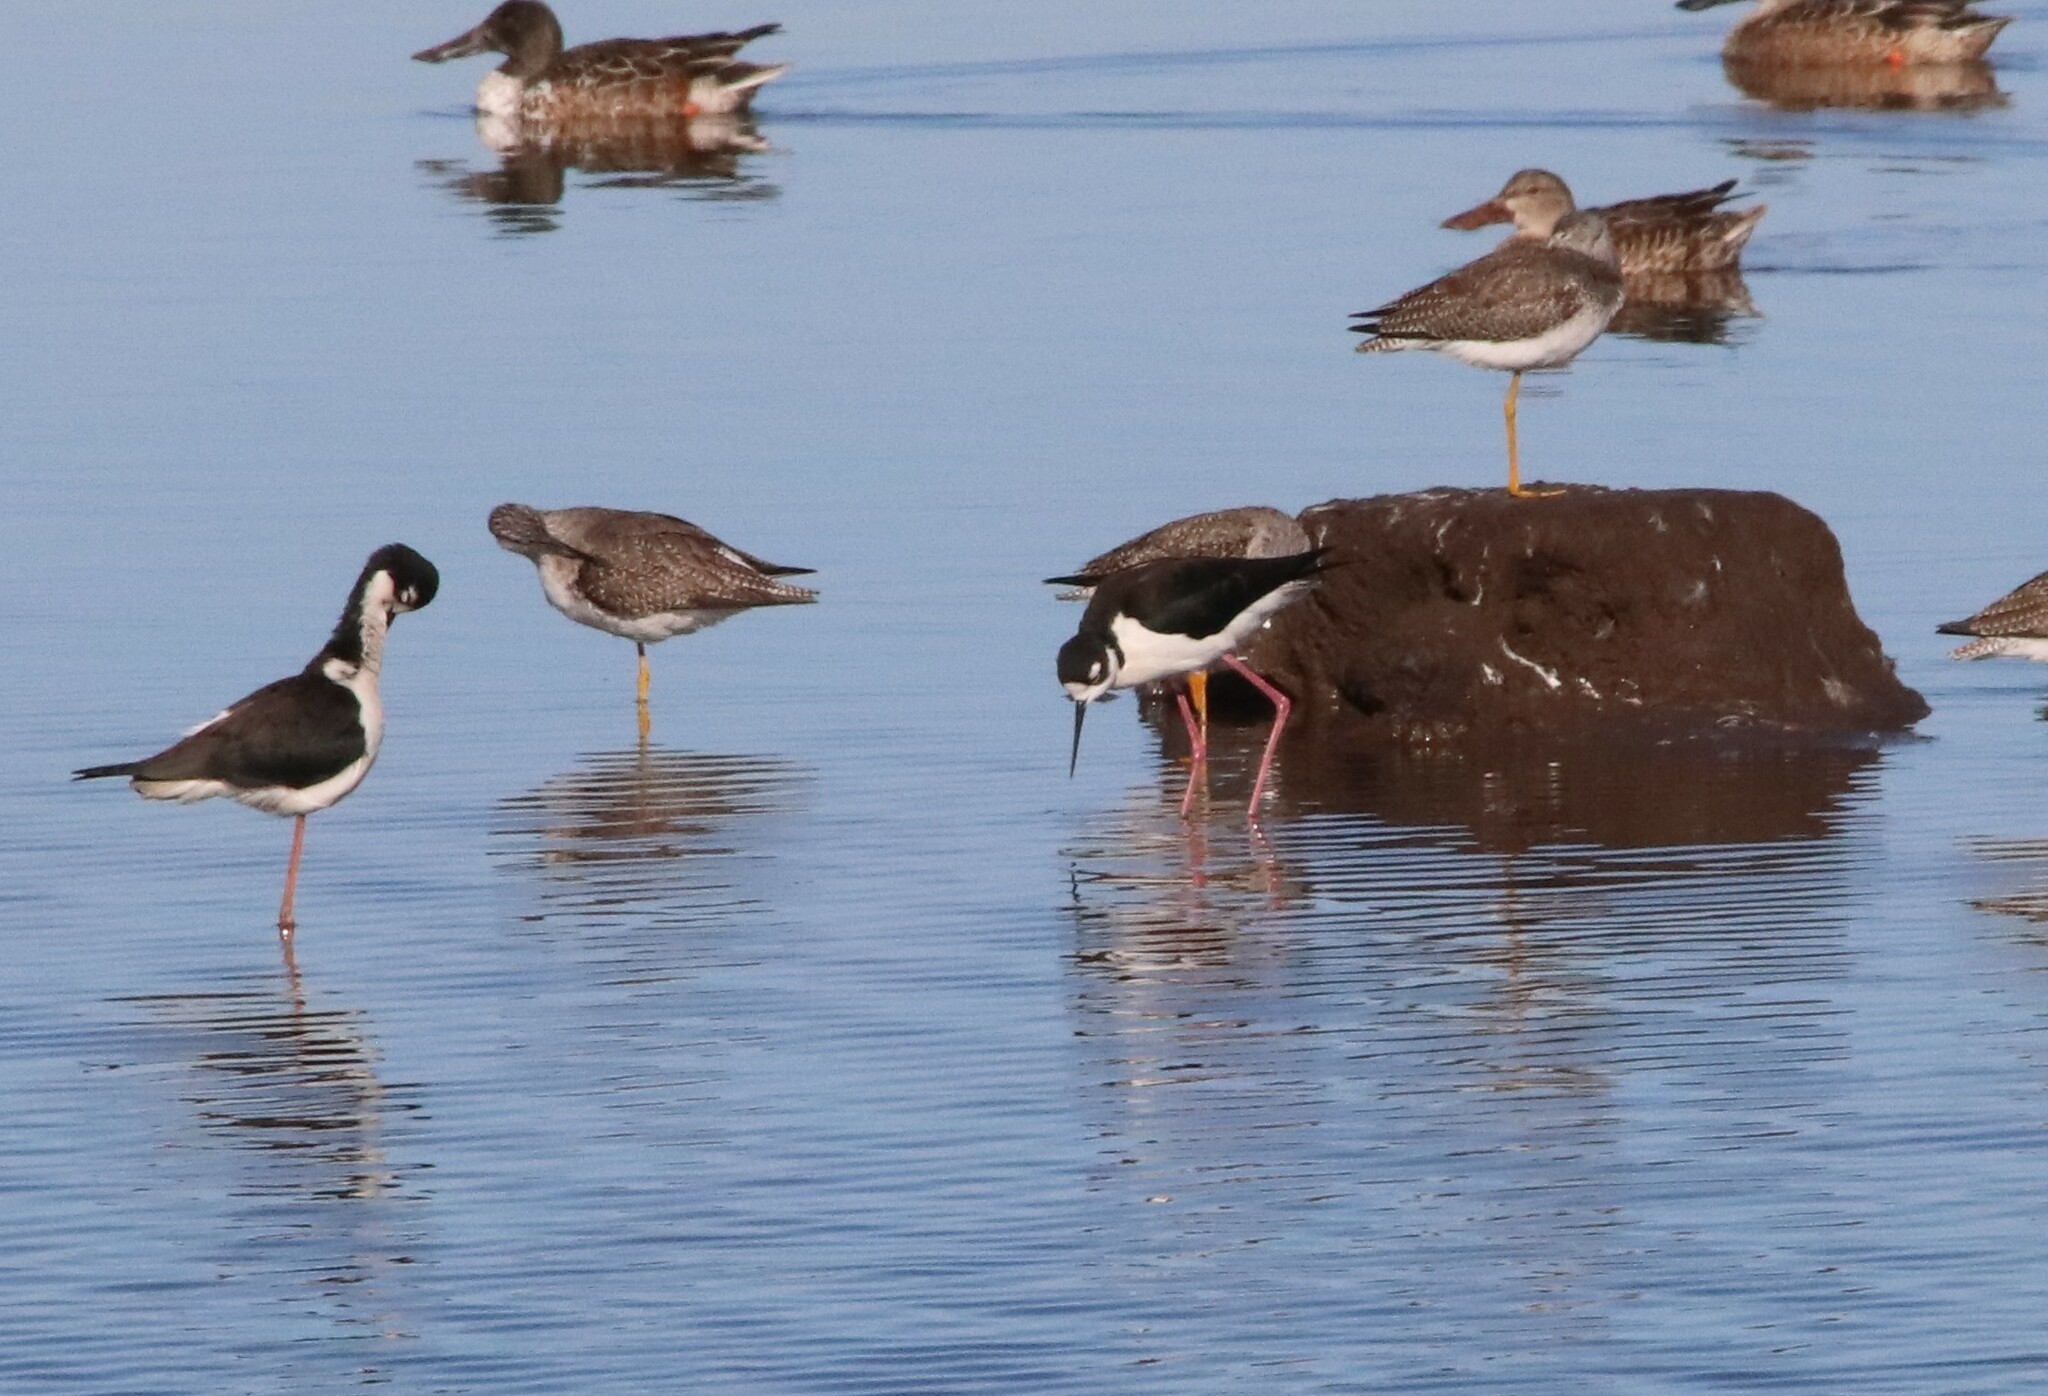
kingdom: Animalia
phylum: Chordata
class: Aves
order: Charadriiformes
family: Recurvirostridae
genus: Himantopus
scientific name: Himantopus mexicanus
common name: Black-necked stilt
